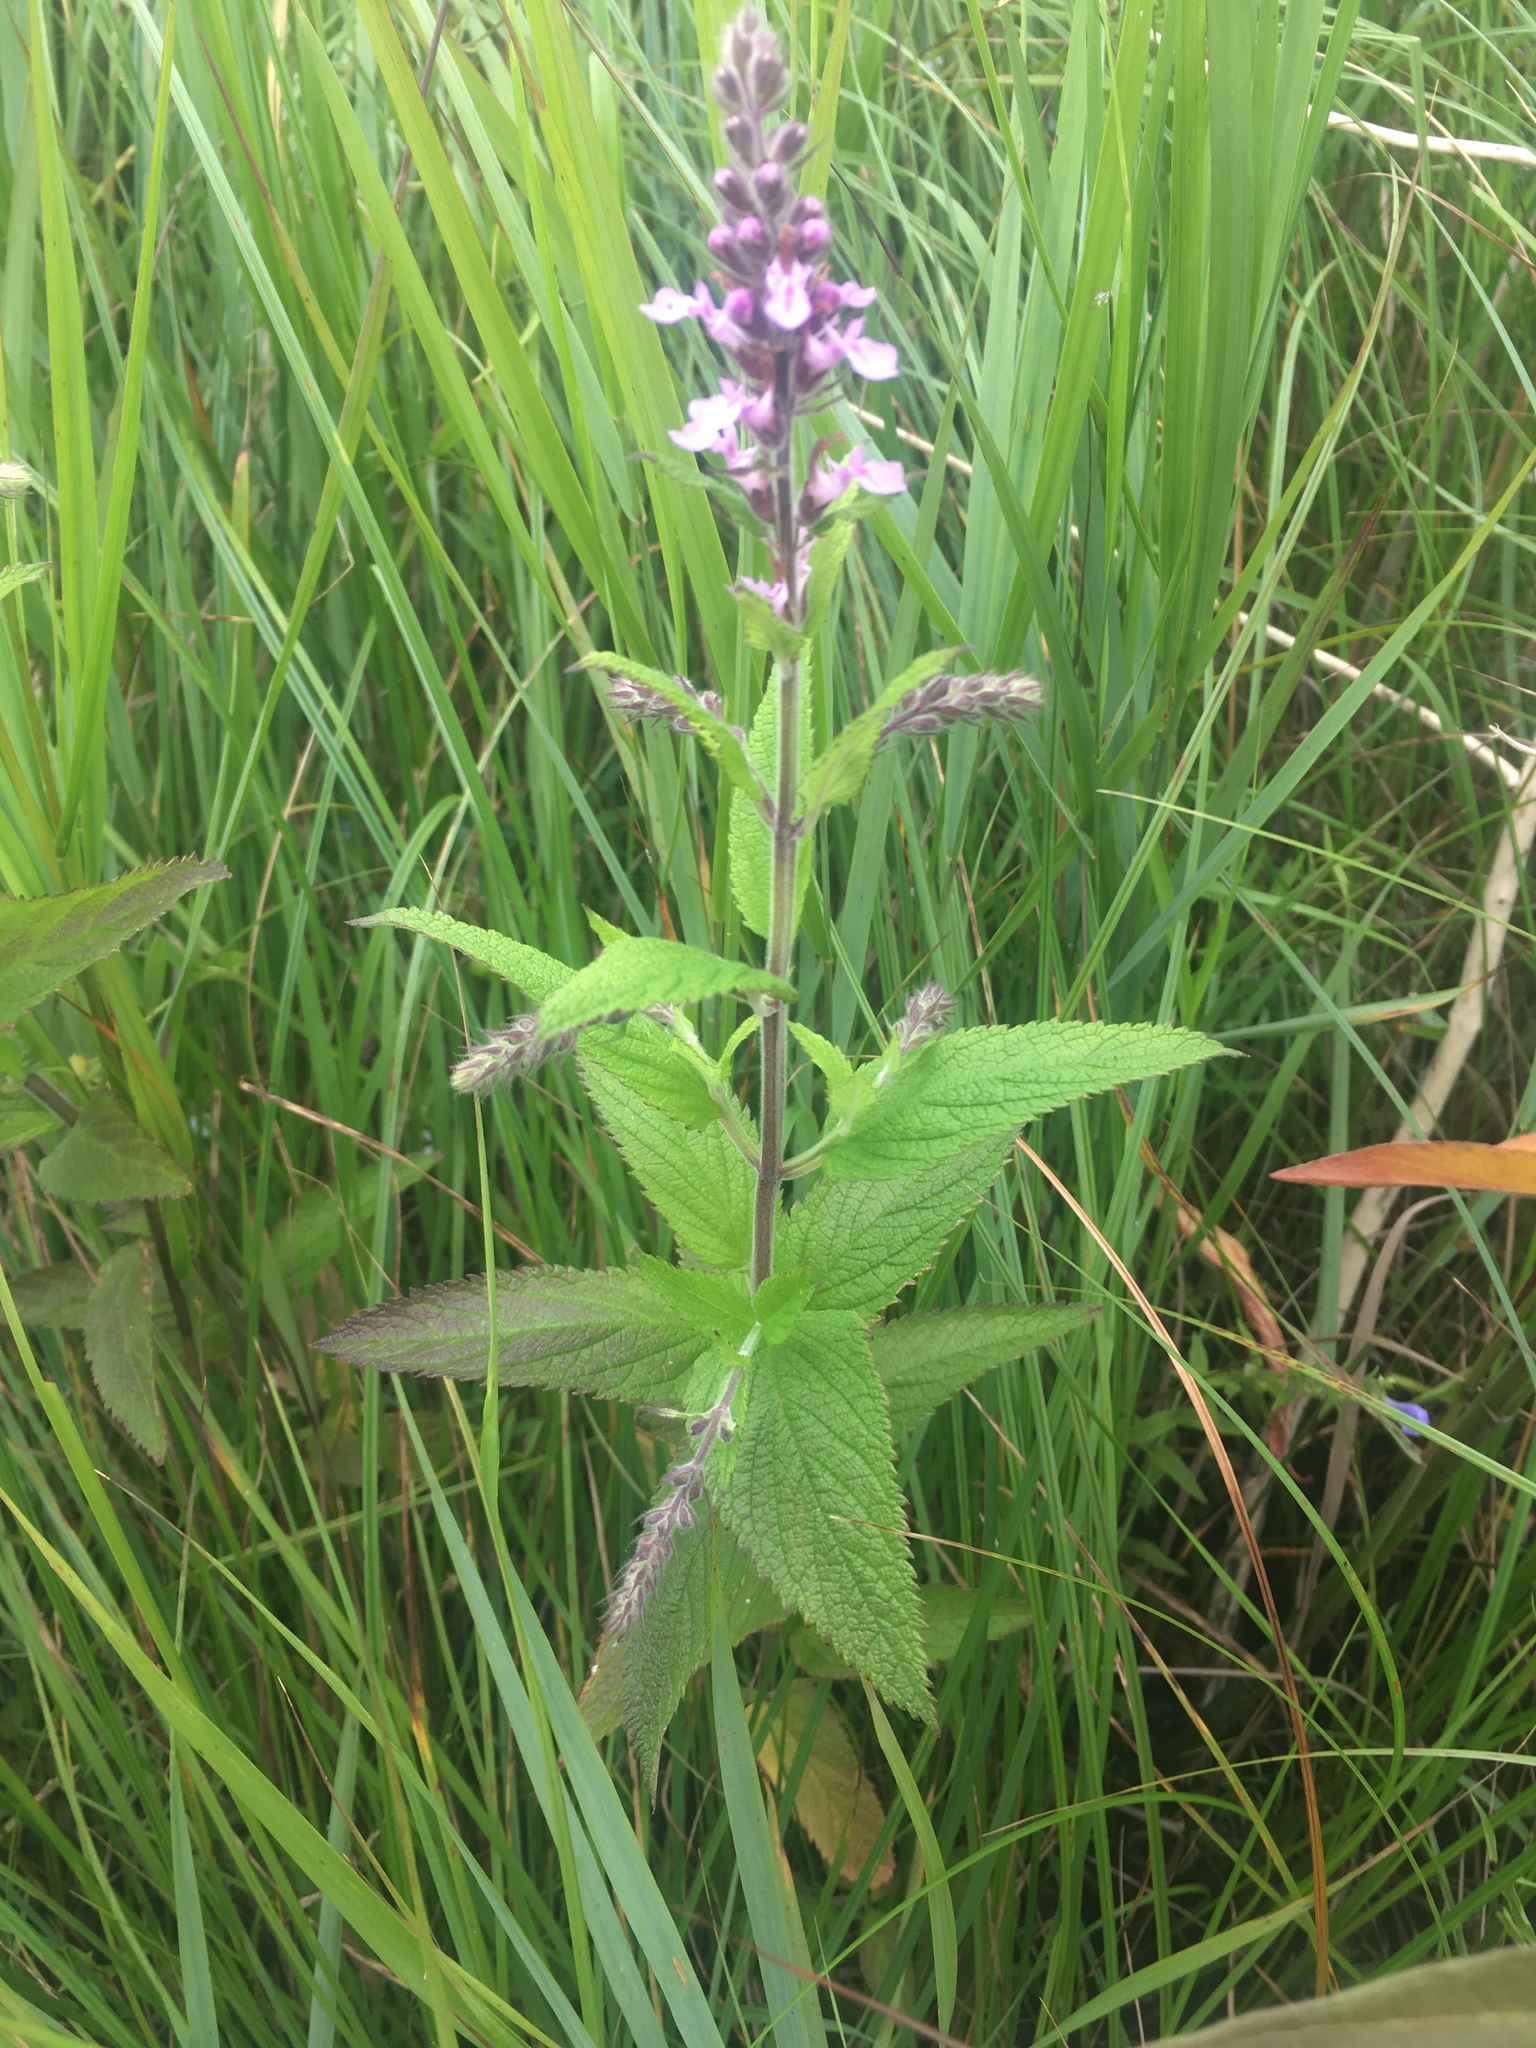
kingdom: Plantae
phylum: Tracheophyta
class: Magnoliopsida
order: Lamiales
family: Lamiaceae
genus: Teucrium
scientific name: Teucrium canadense
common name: American germander
